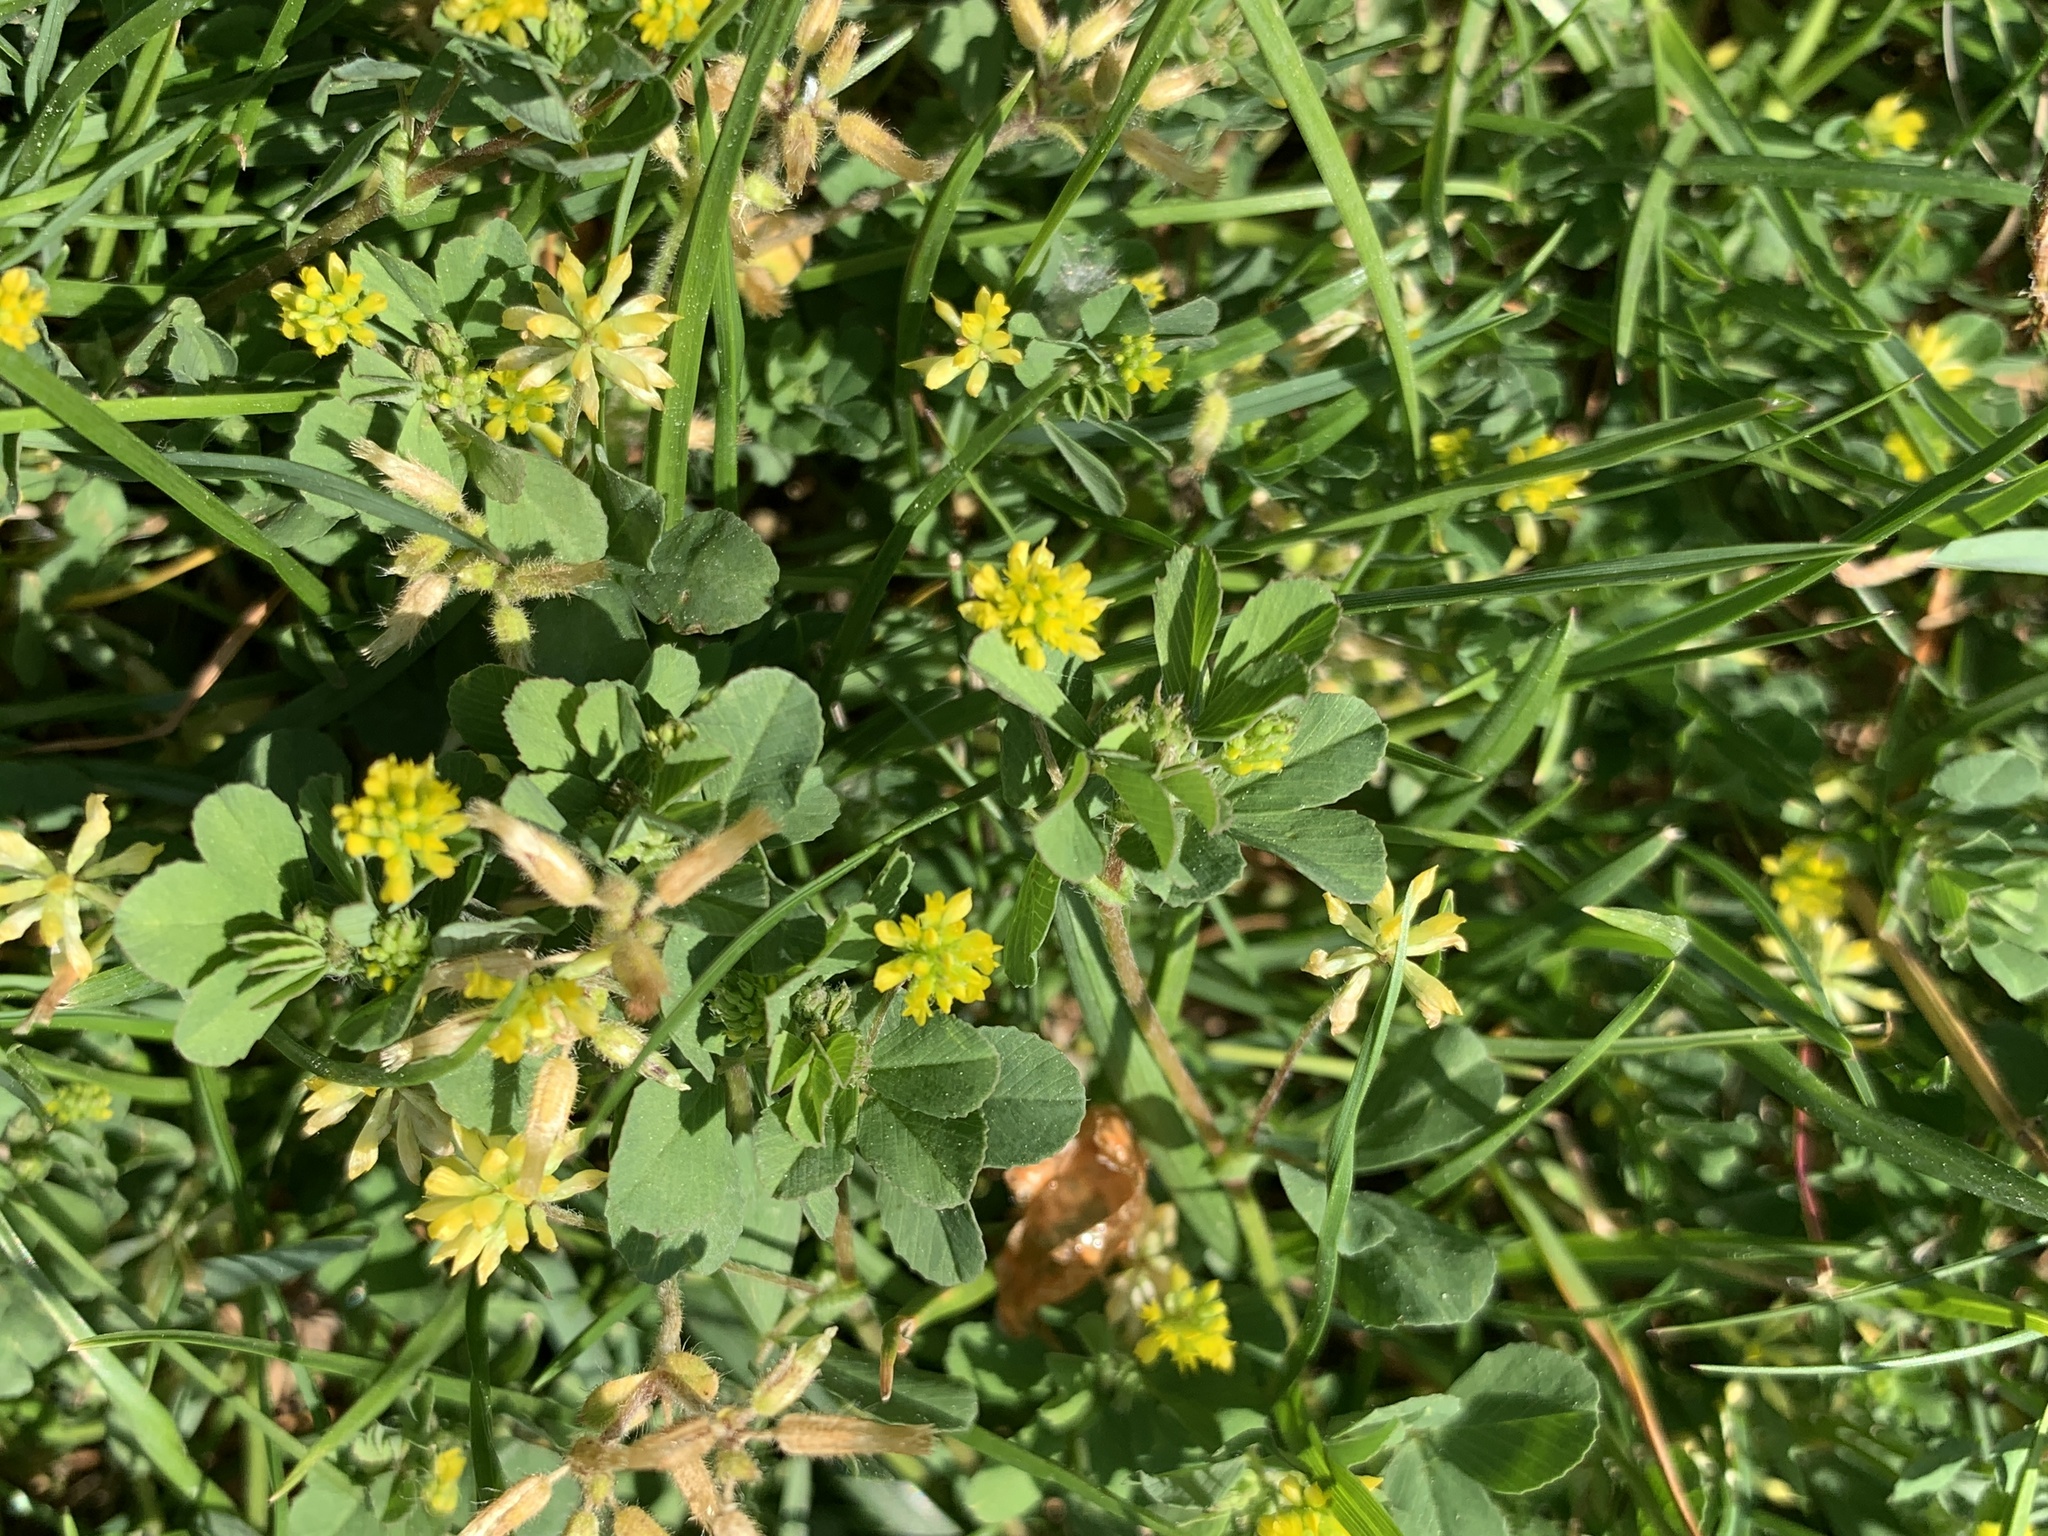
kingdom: Plantae
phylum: Tracheophyta
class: Magnoliopsida
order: Fabales
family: Fabaceae
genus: Trifolium
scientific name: Trifolium dubium
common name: Suckling clover
